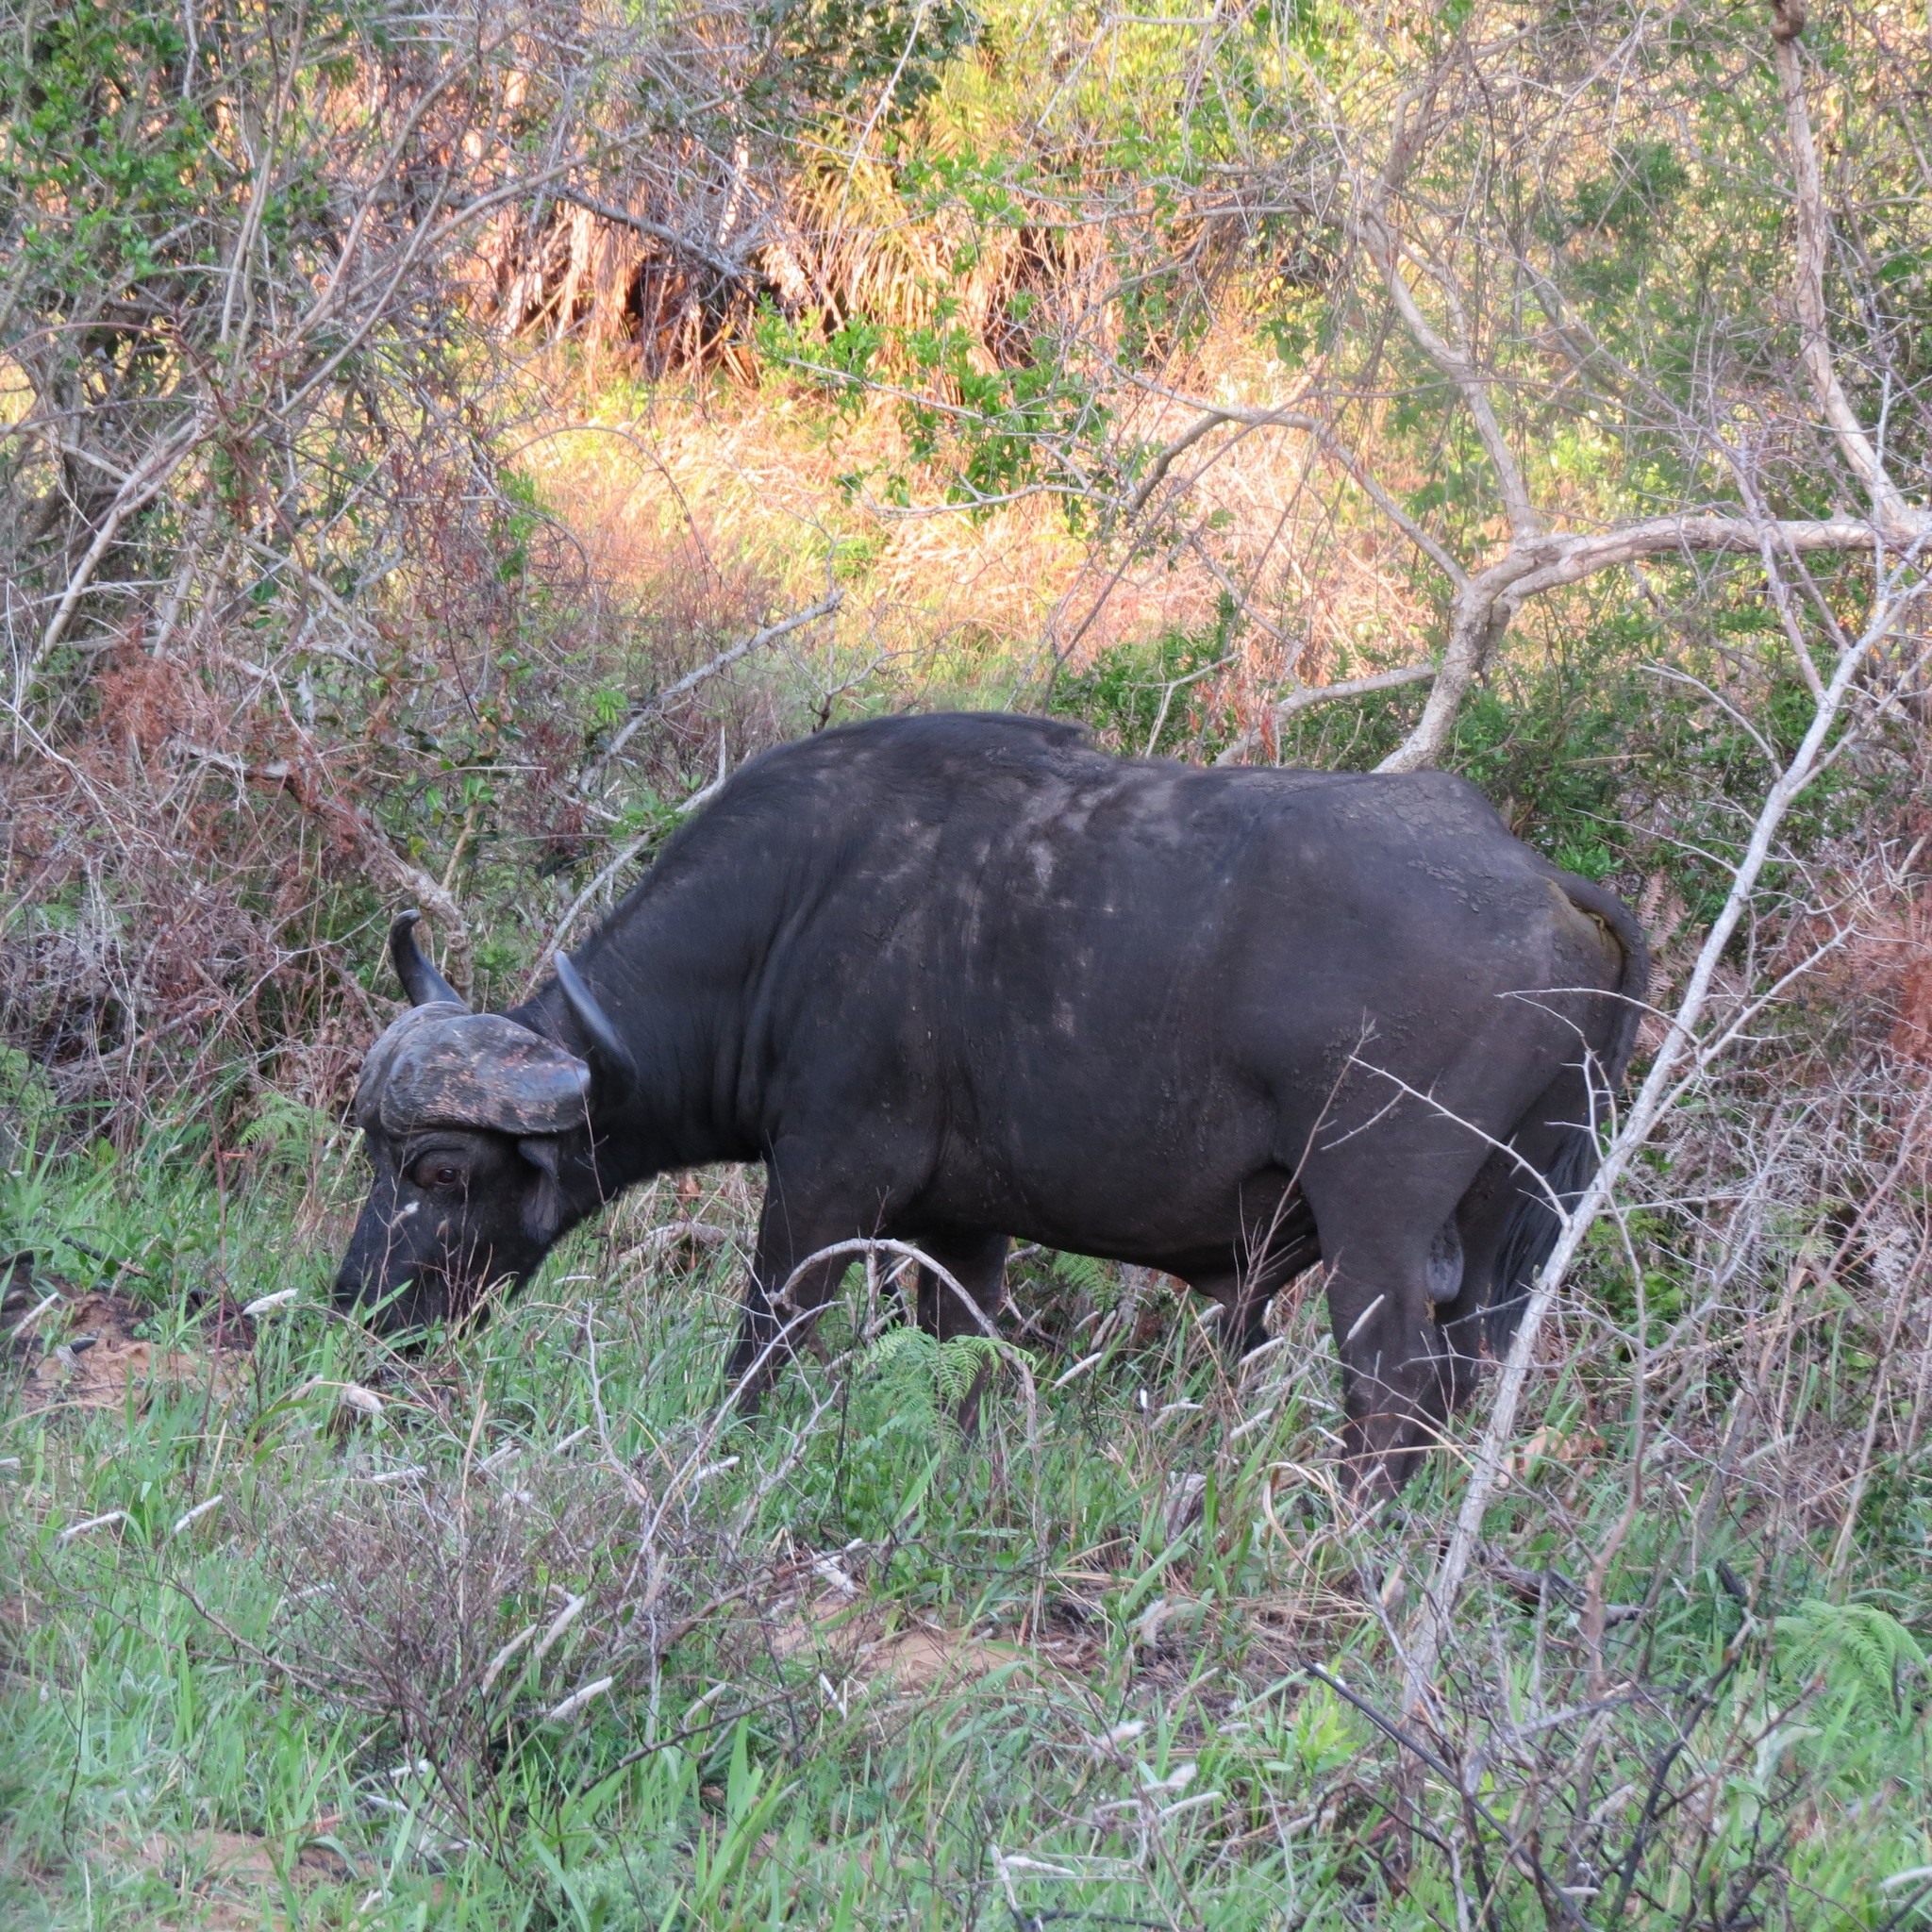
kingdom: Animalia
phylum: Chordata
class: Mammalia
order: Artiodactyla
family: Bovidae
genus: Syncerus
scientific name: Syncerus caffer
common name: African buffalo
